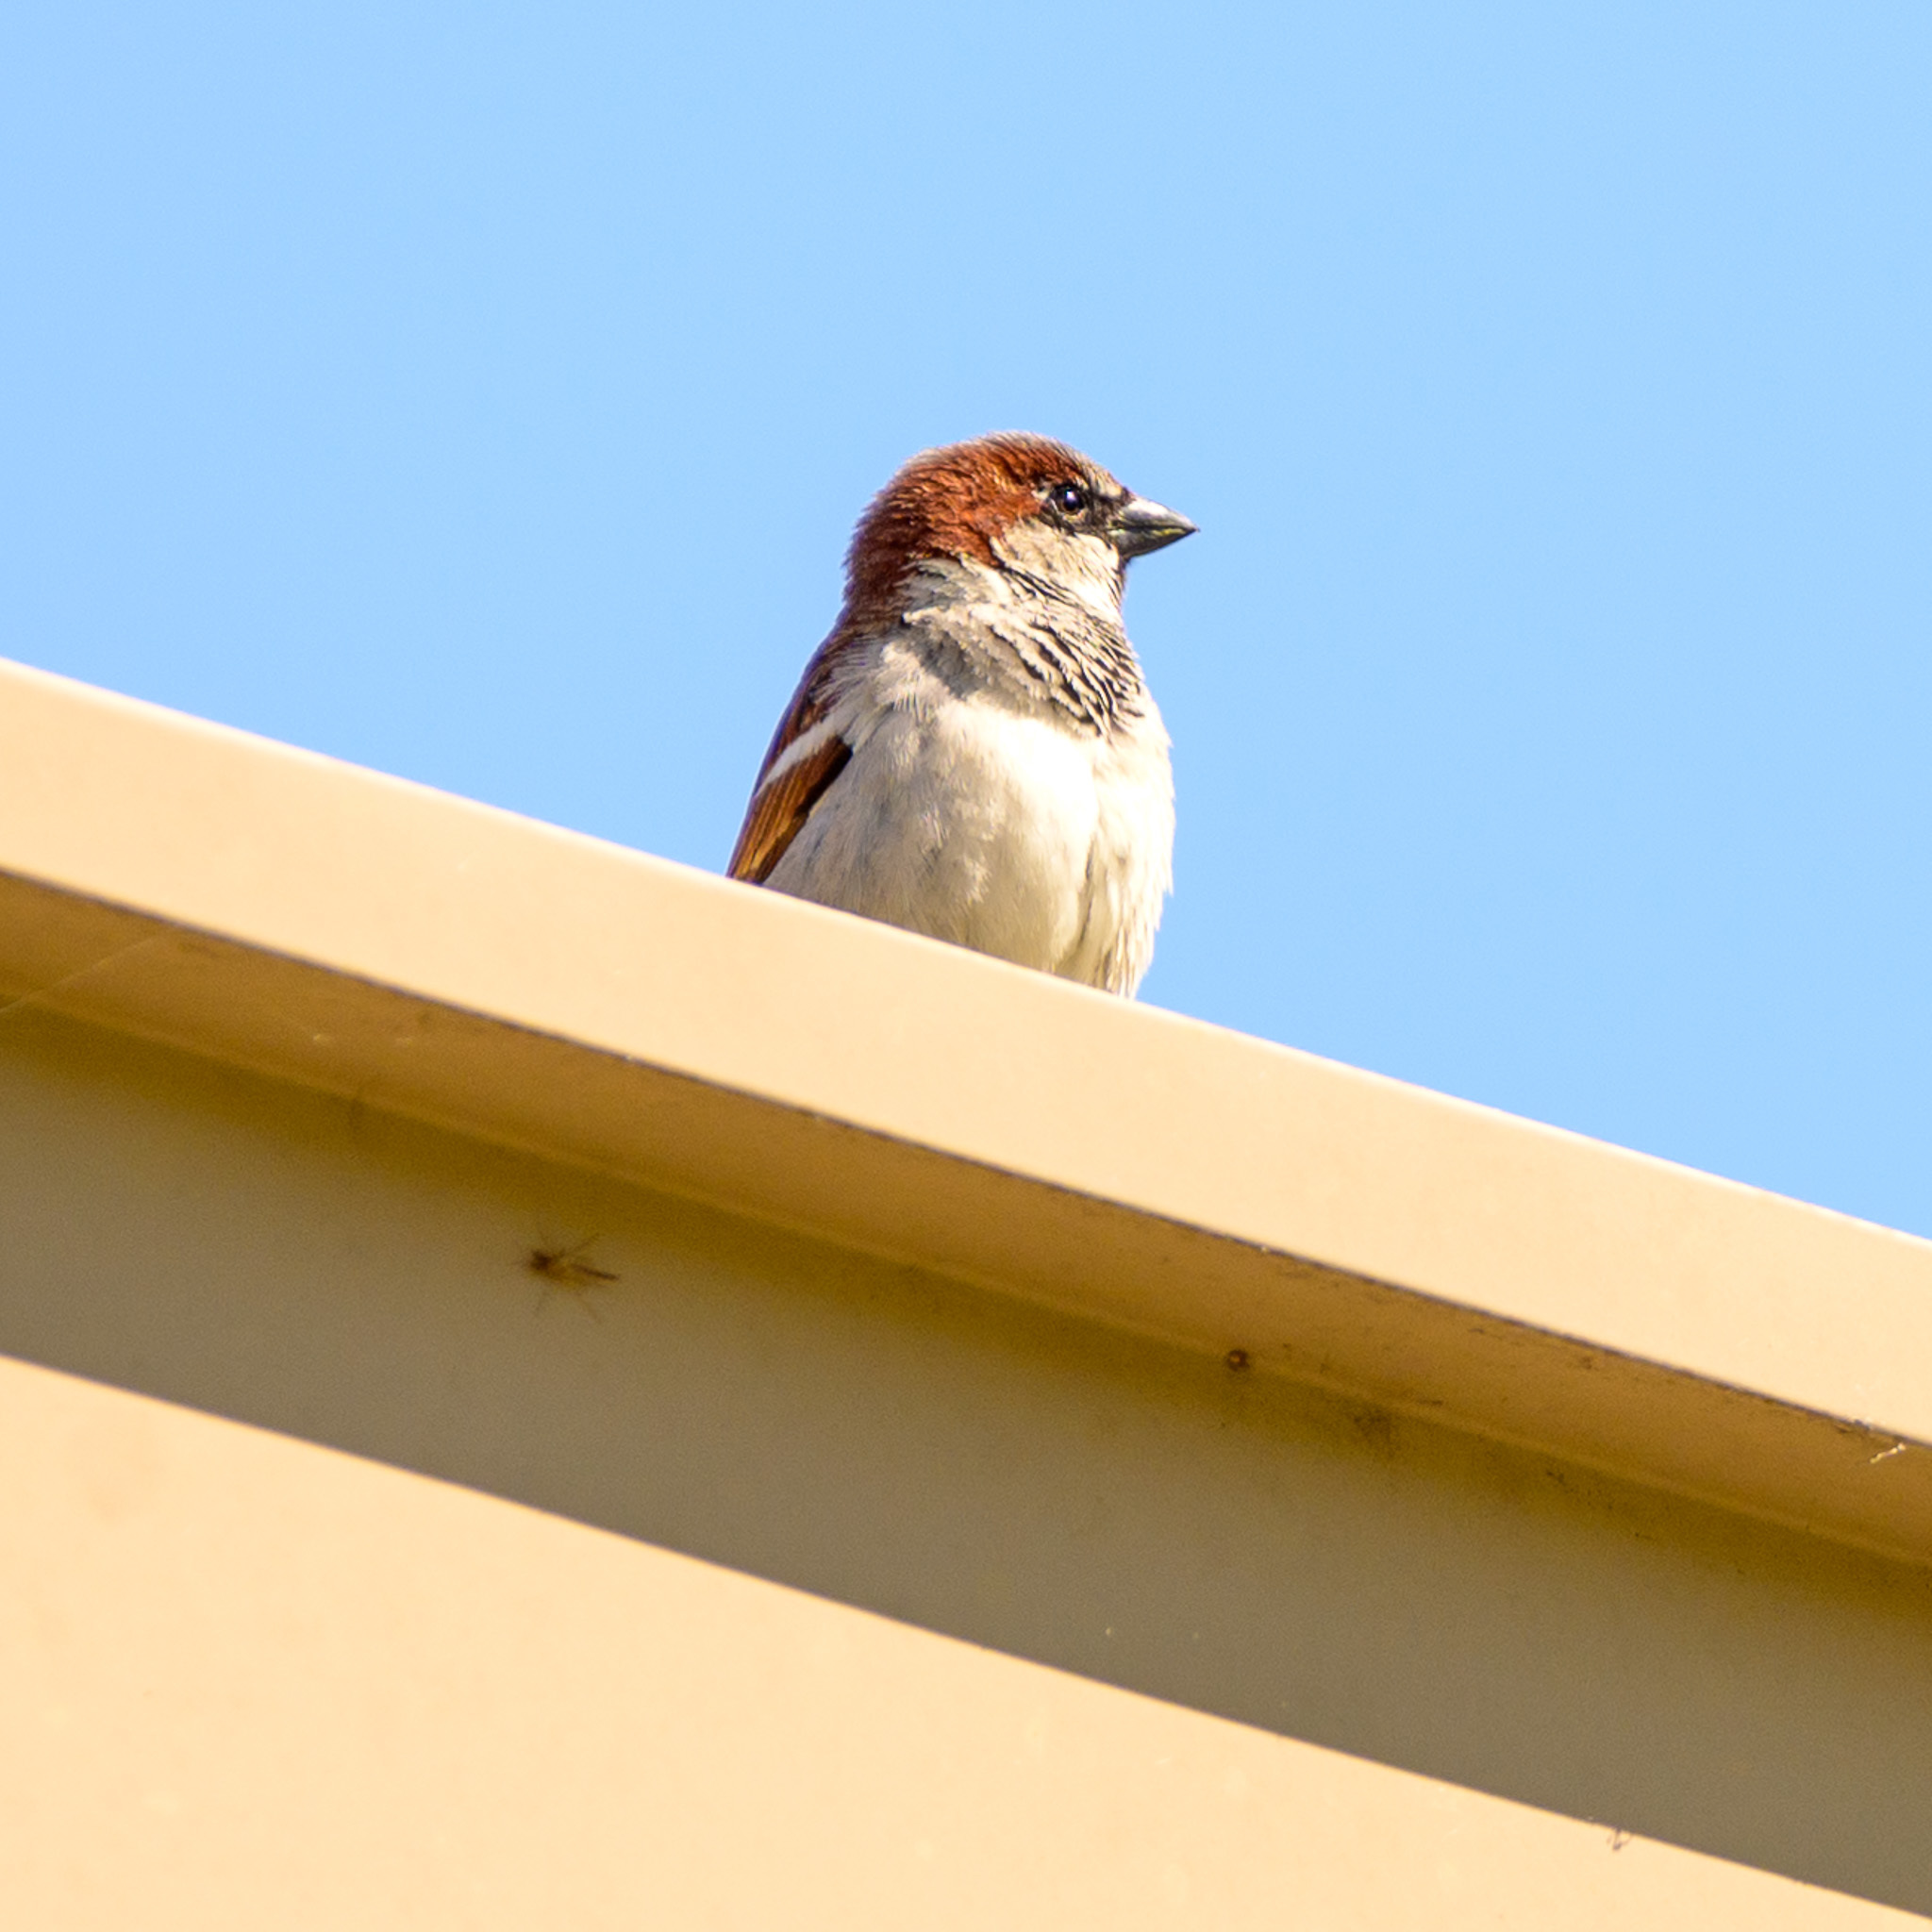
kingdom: Animalia
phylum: Chordata
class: Aves
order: Passeriformes
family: Passeridae
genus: Passer
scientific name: Passer domesticus
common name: House sparrow
